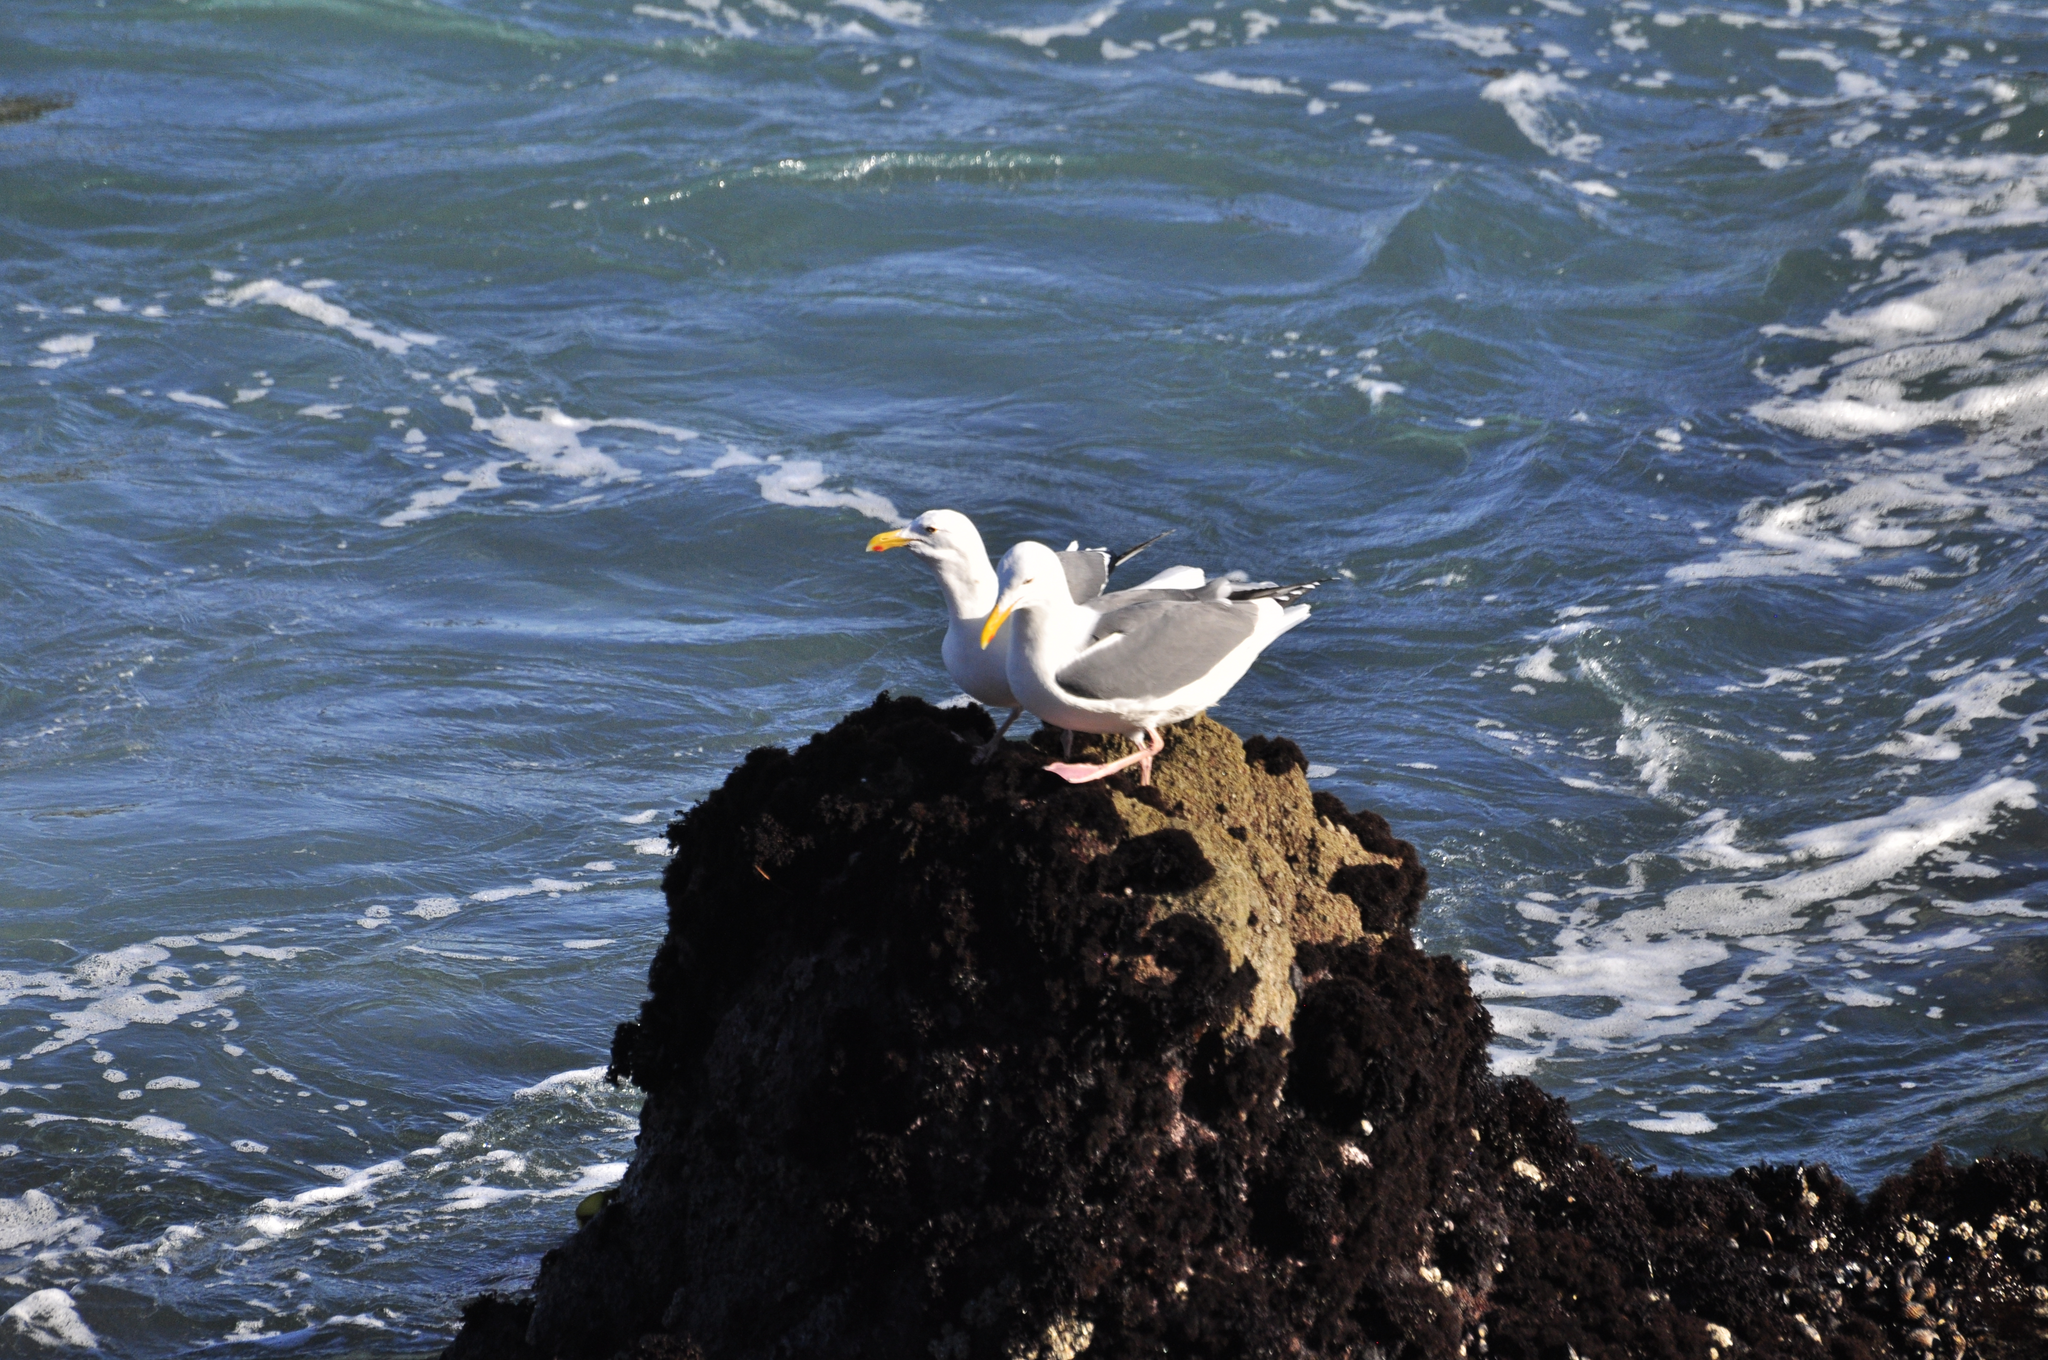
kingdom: Animalia
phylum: Chordata
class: Aves
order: Charadriiformes
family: Laridae
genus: Larus
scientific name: Larus occidentalis
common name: Western gull
